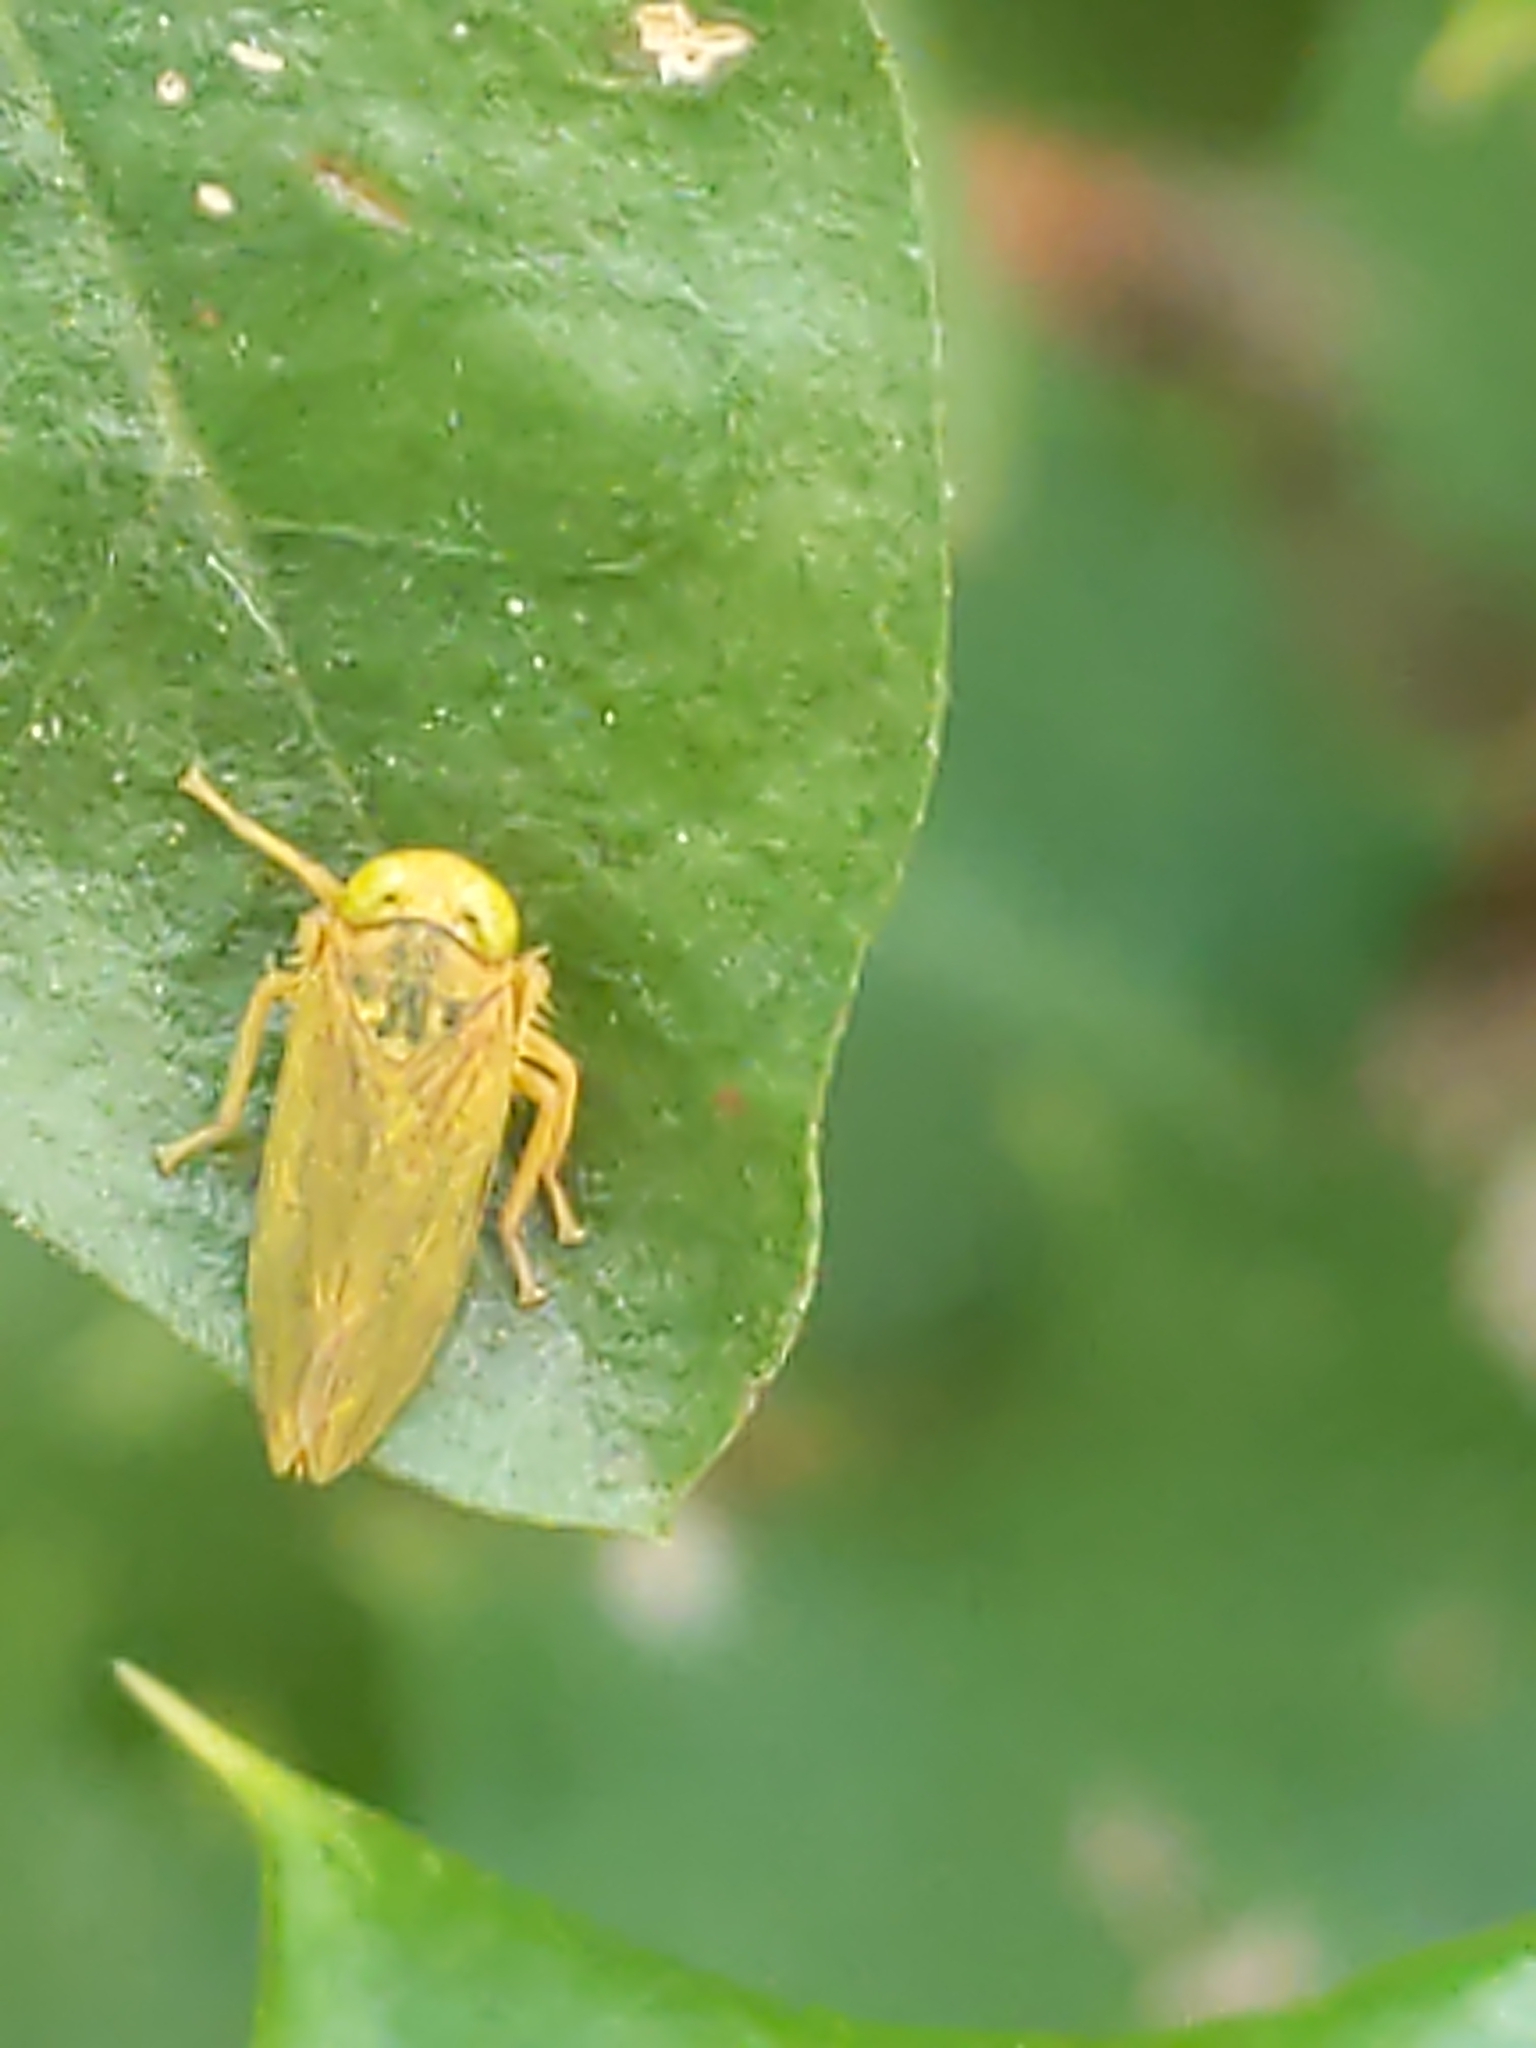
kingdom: Animalia
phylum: Arthropoda
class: Insecta
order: Hemiptera
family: Cicadellidae
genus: Jikradia
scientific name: Jikradia olitoria
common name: Coppery leafhopper
